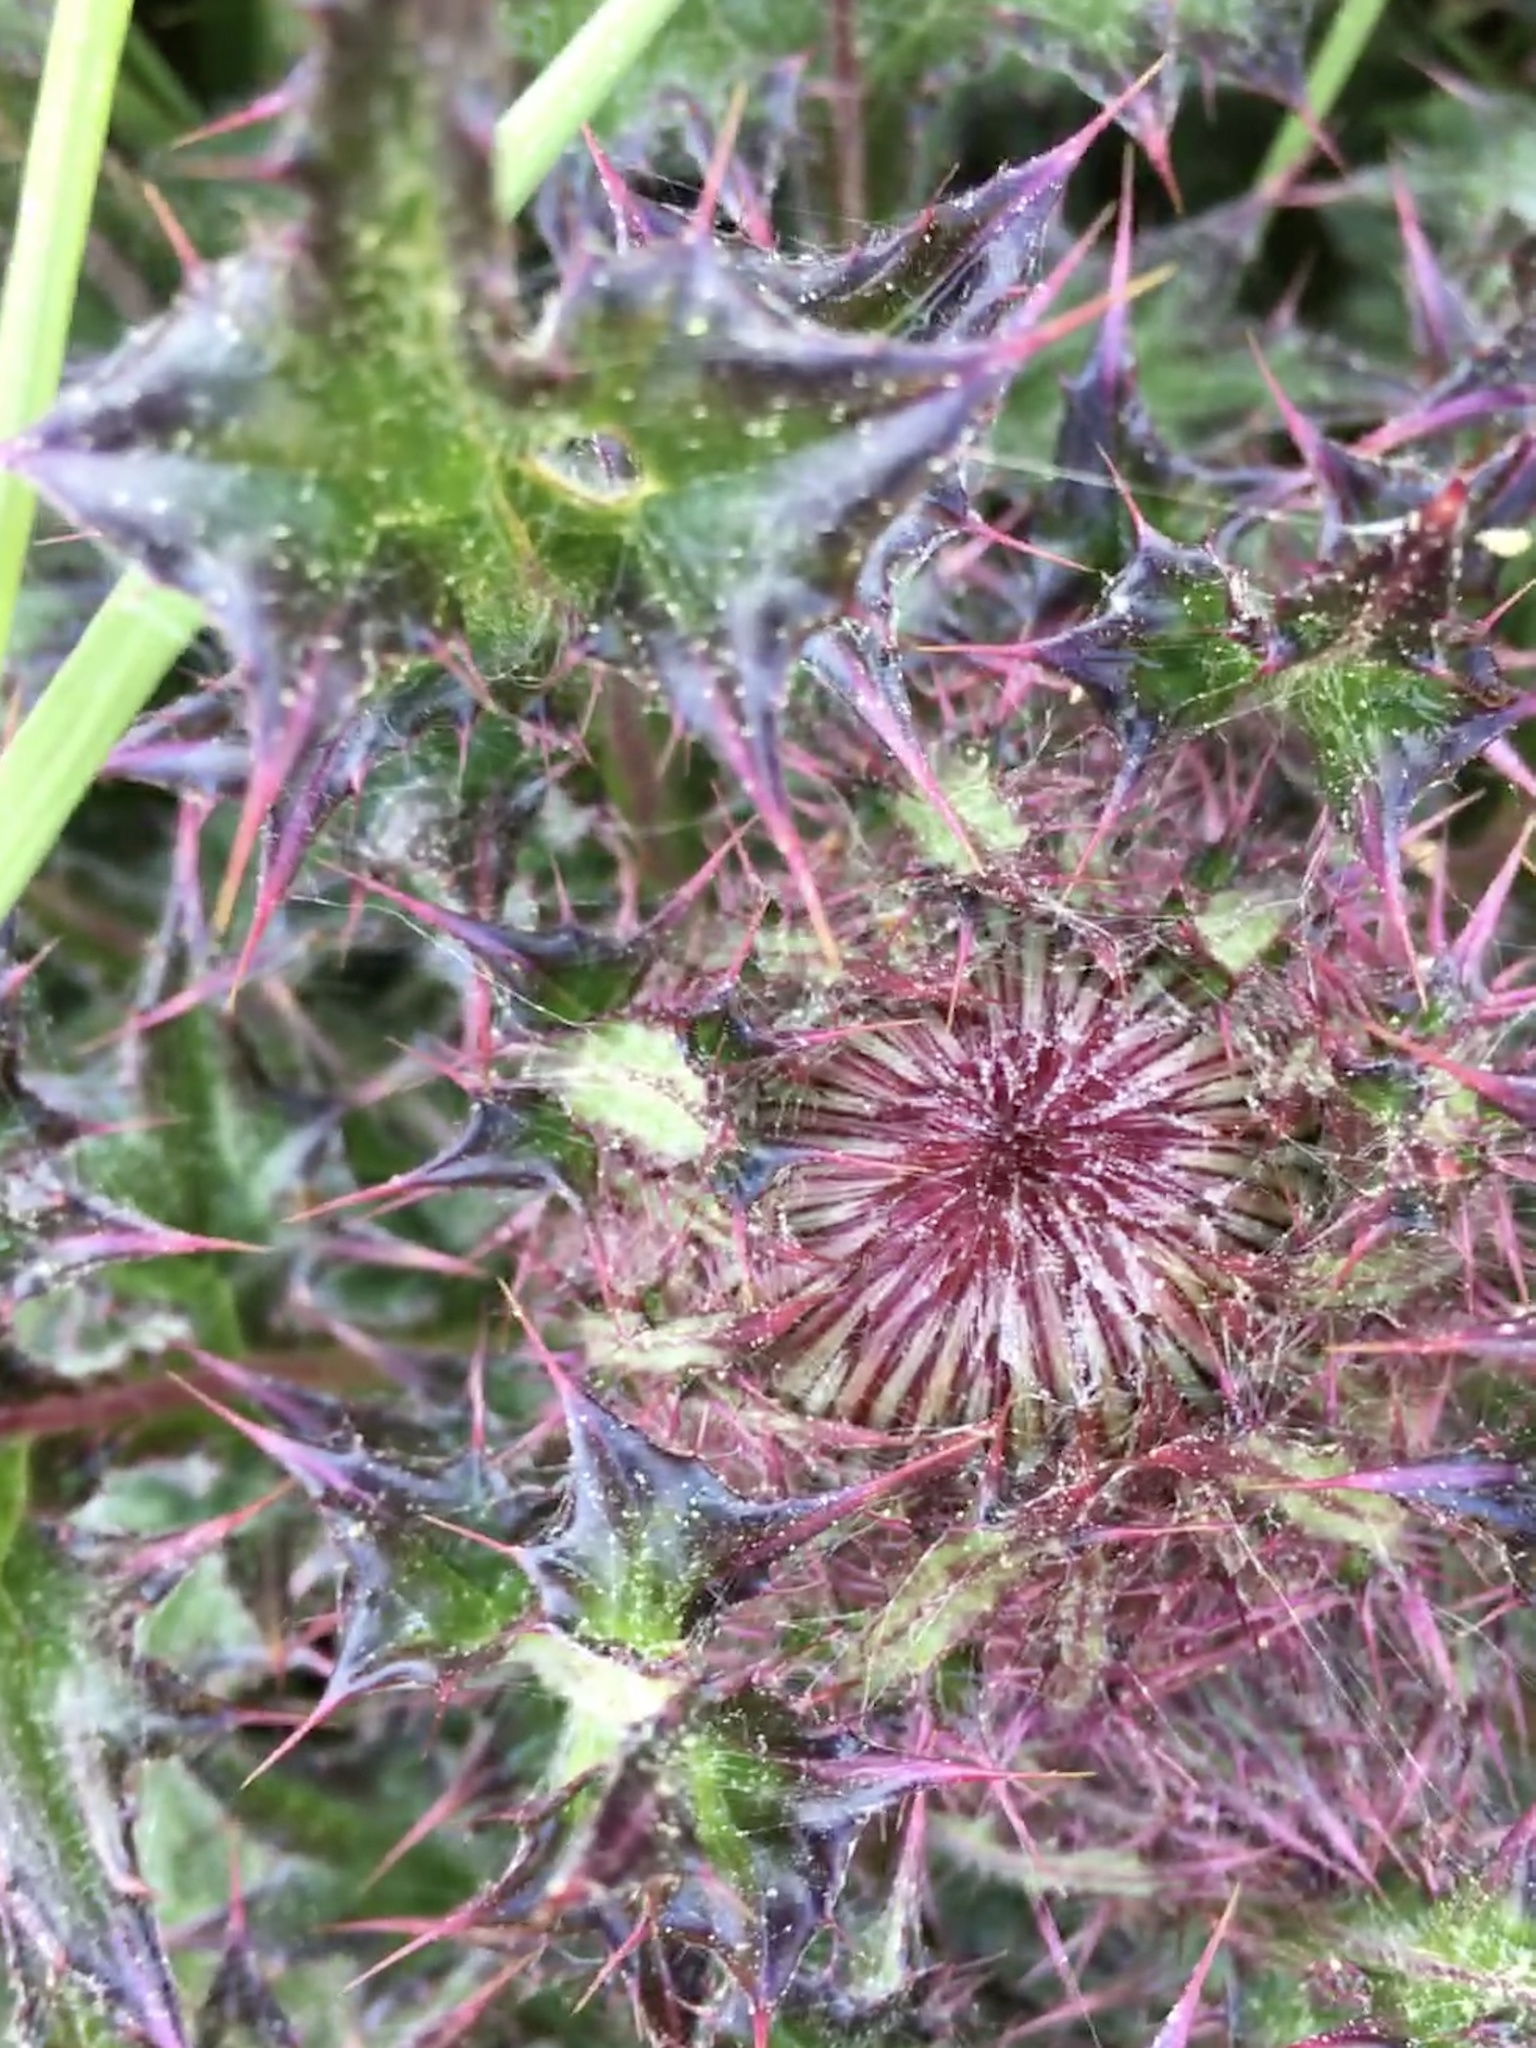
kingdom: Plantae
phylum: Tracheophyta
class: Magnoliopsida
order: Asterales
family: Asteraceae
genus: Cirsium
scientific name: Cirsium horridulum
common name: Bristly thistle
